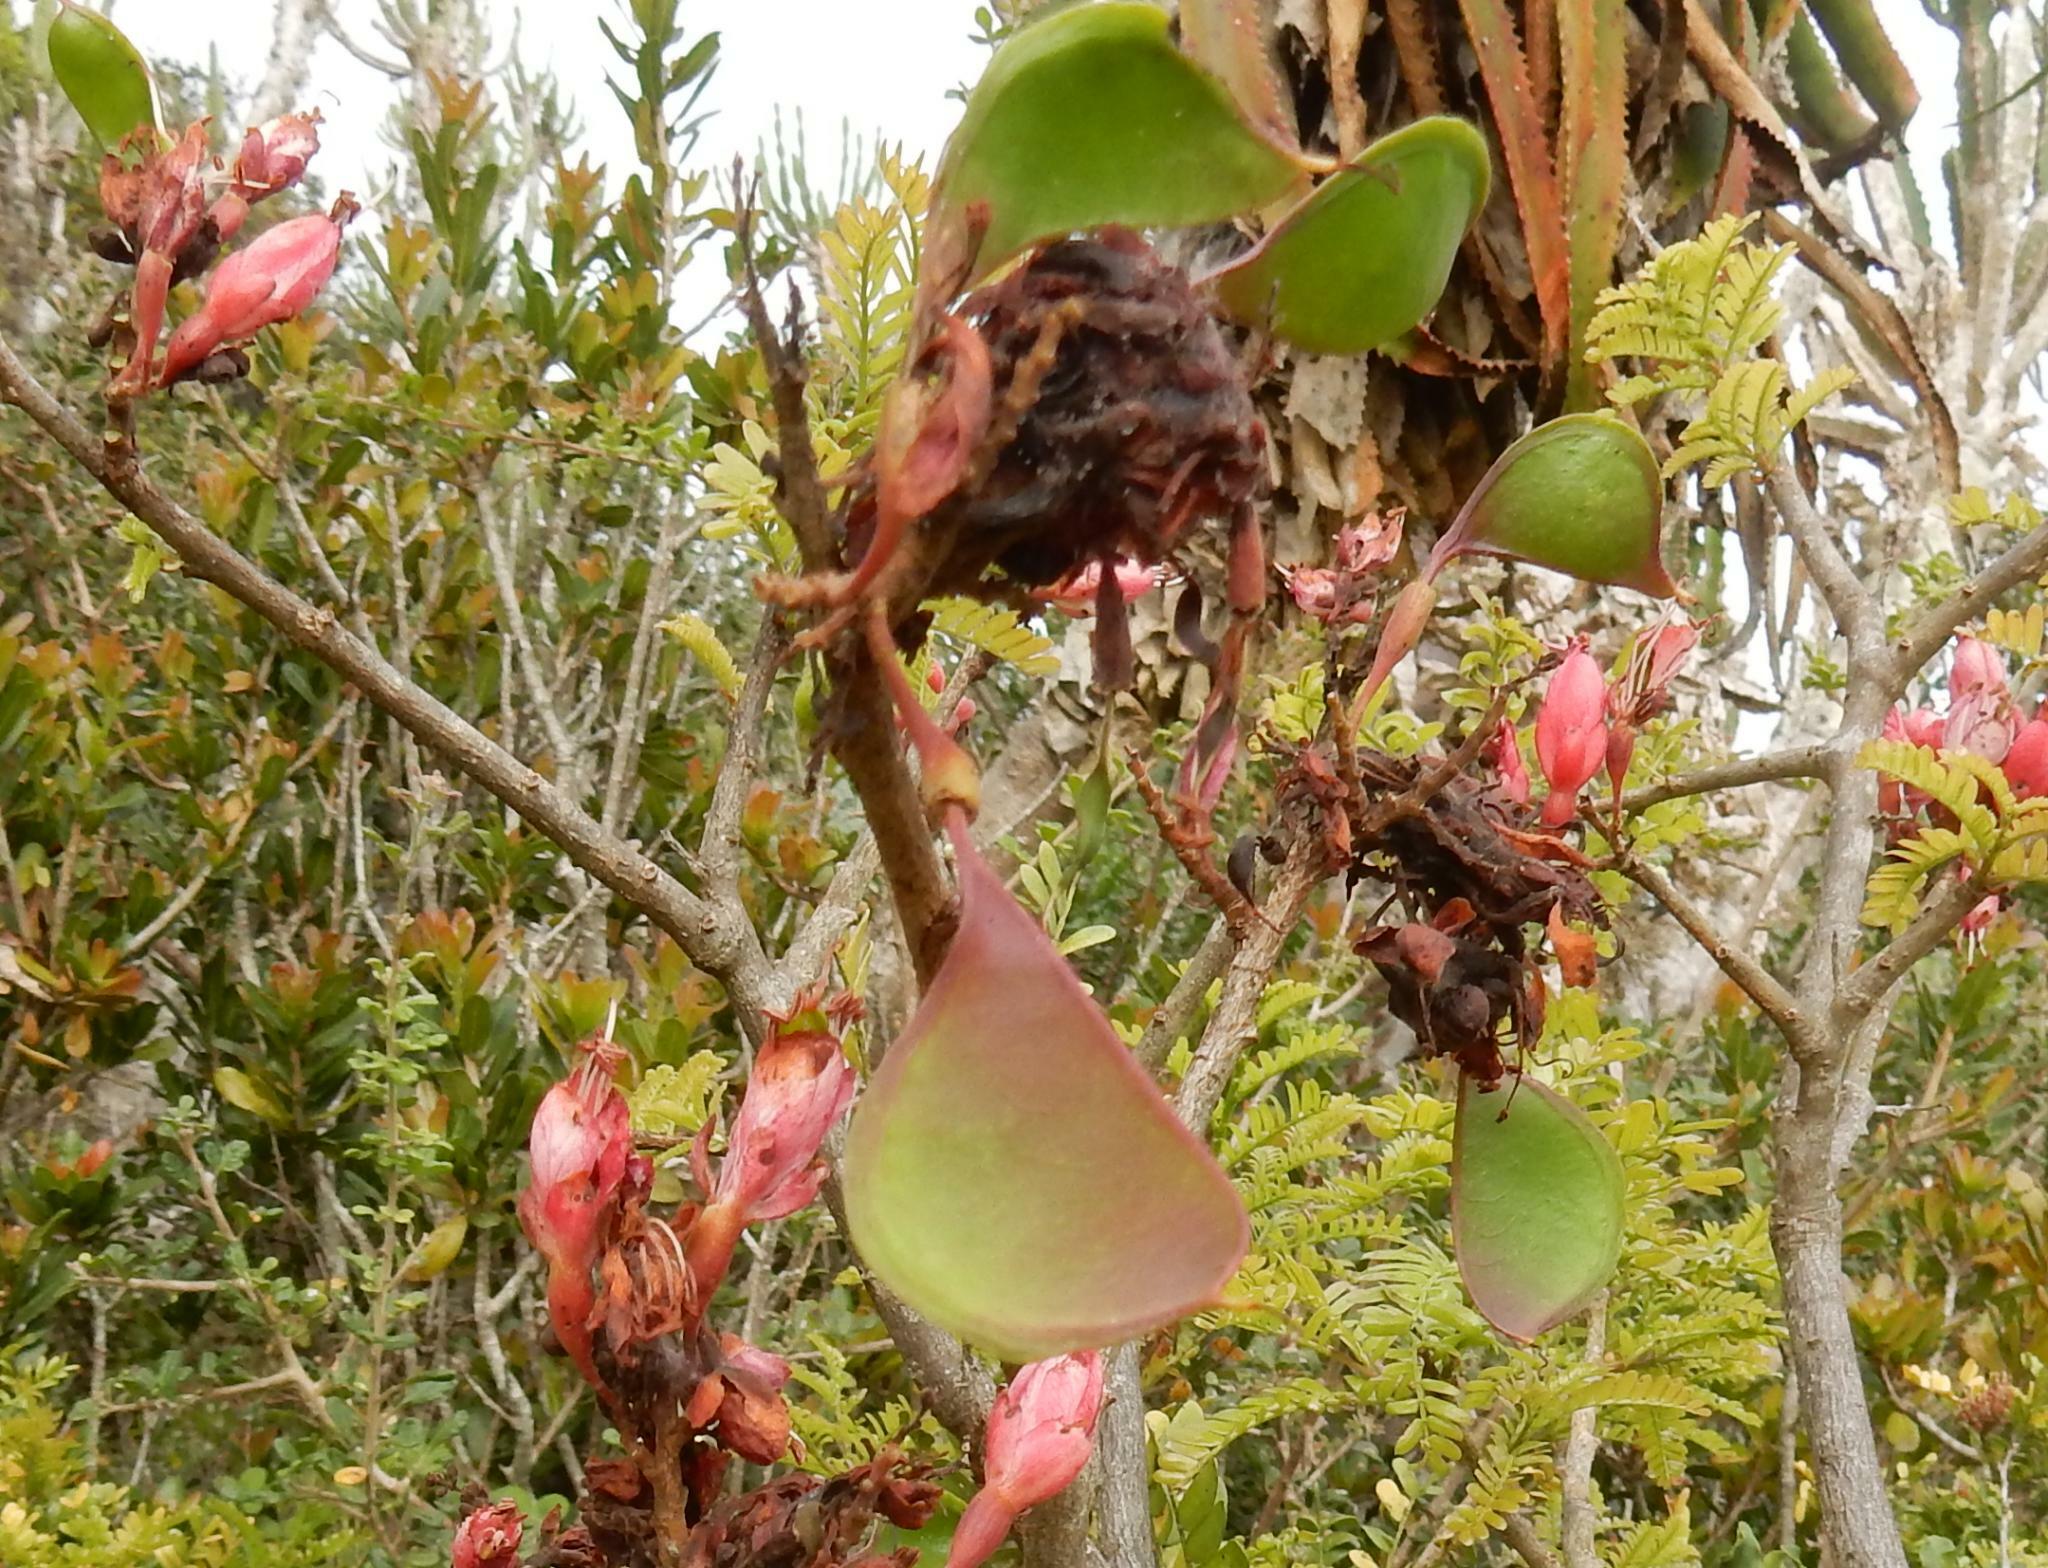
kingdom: Plantae
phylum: Tracheophyta
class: Magnoliopsida
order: Fabales
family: Fabaceae
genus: Schotia
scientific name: Schotia afra
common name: Hottentot's bean
